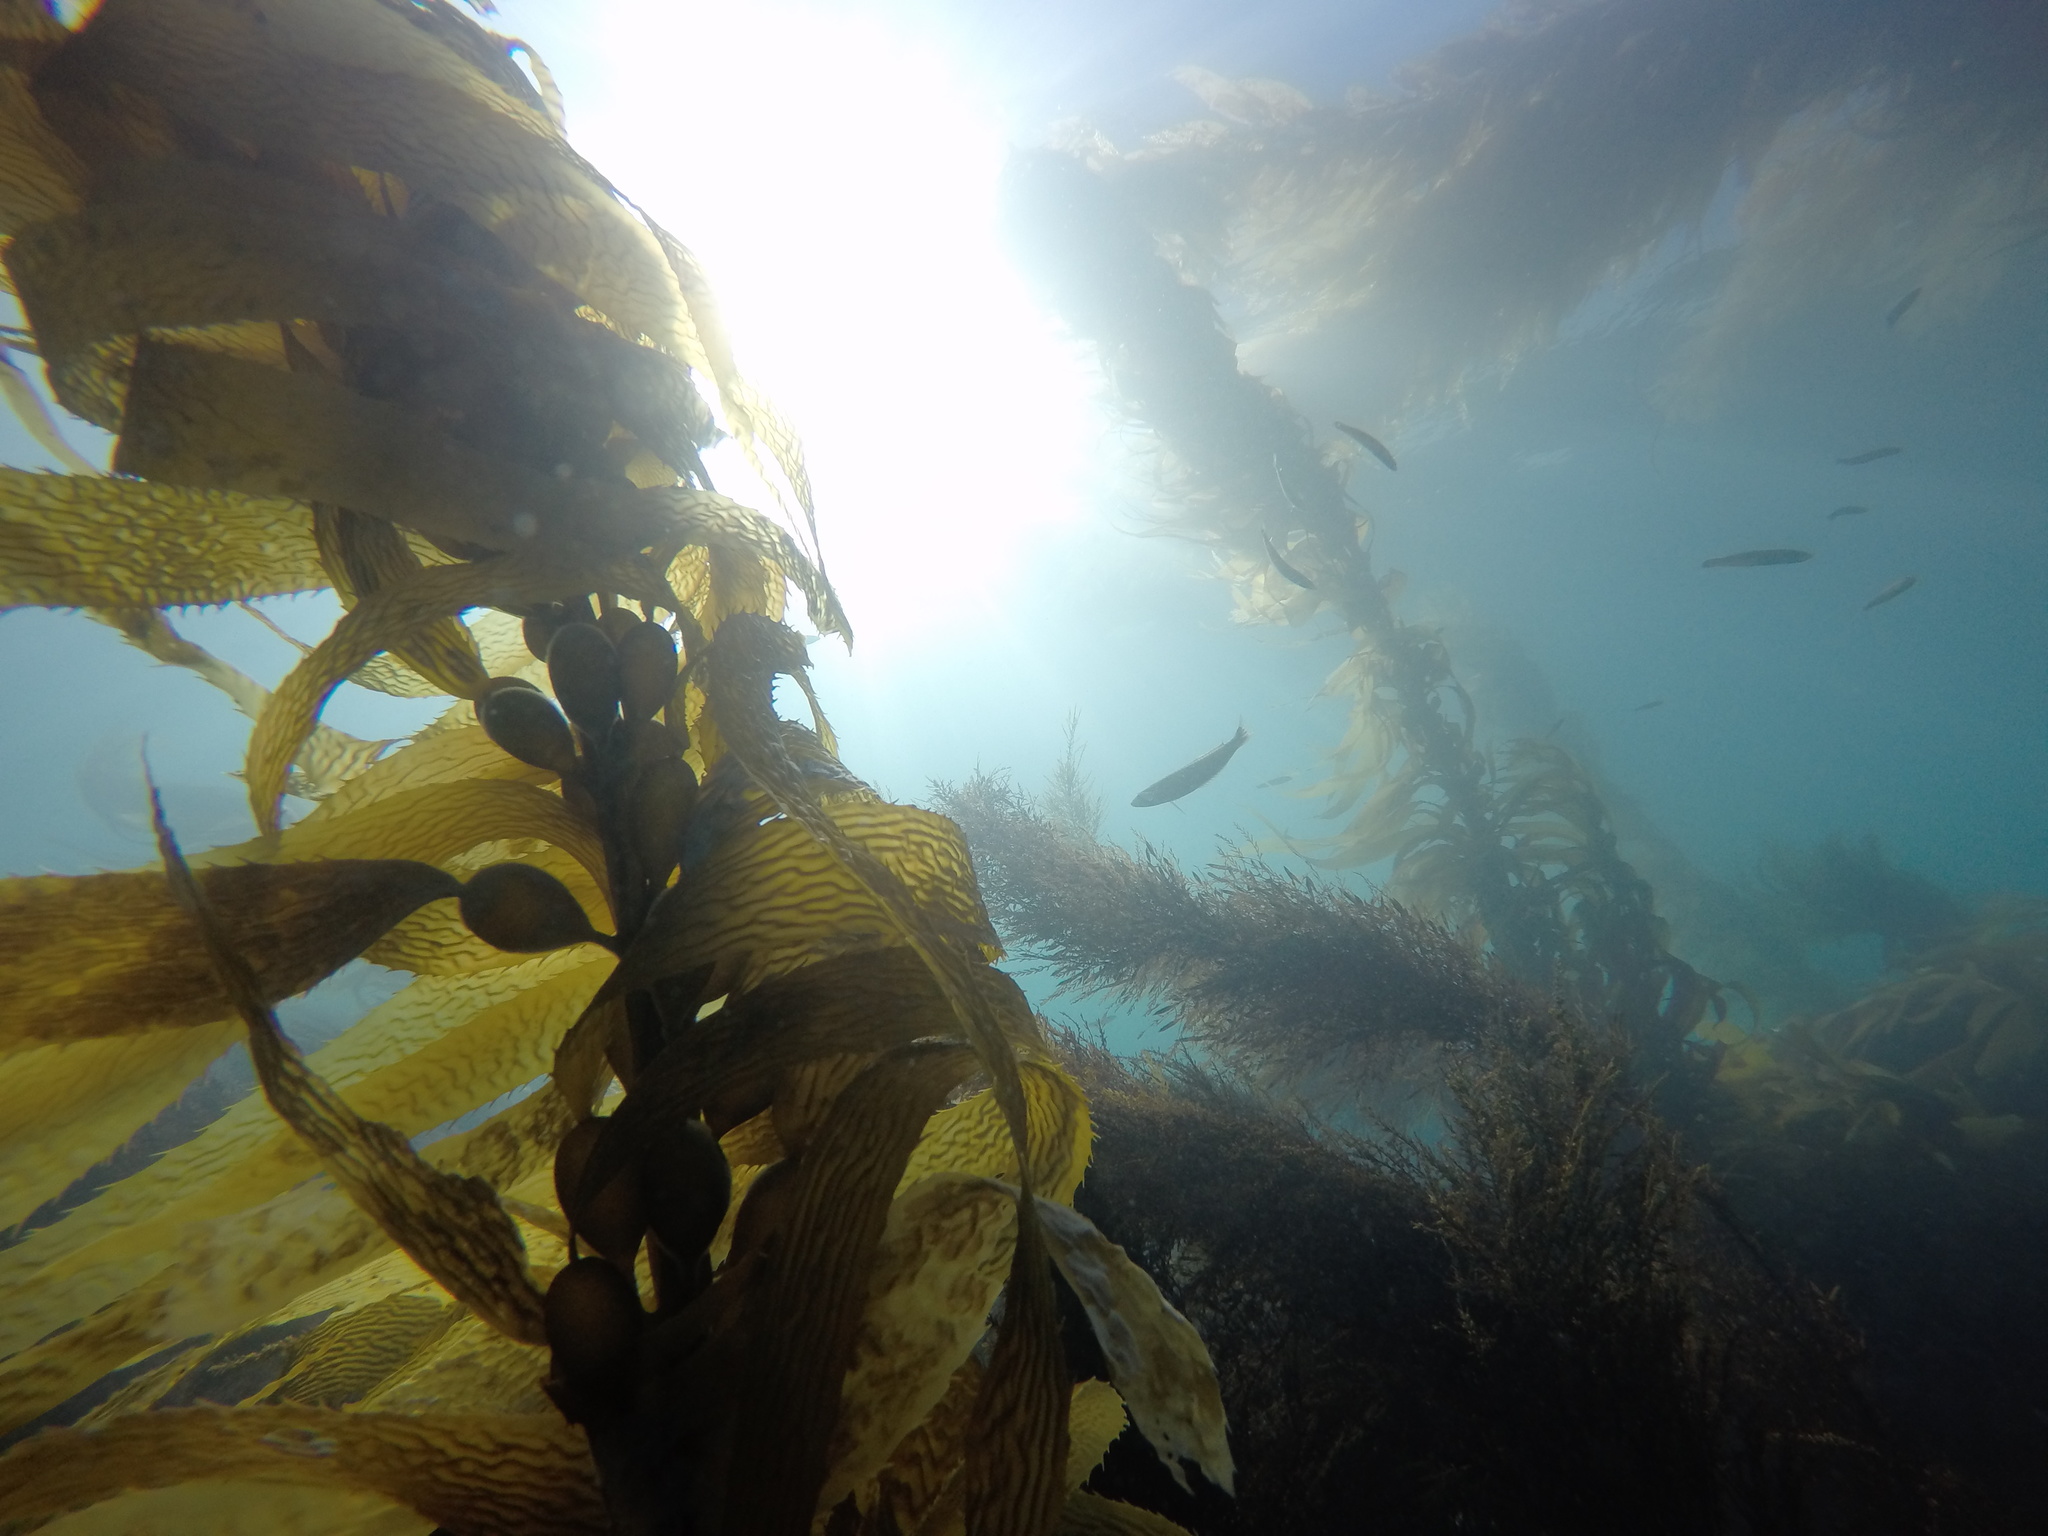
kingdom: Chromista
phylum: Ochrophyta
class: Phaeophyceae
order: Laminariales
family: Laminariaceae
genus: Macrocystis
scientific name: Macrocystis pyrifera
